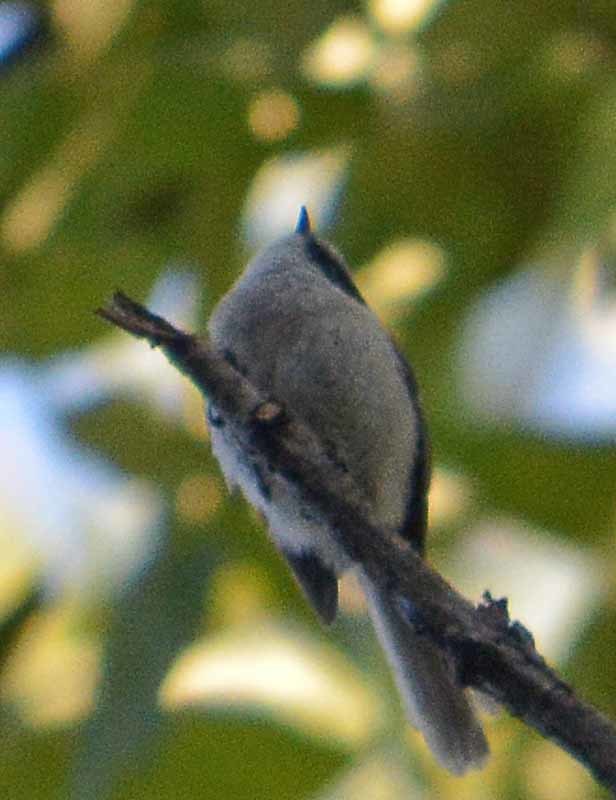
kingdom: Animalia
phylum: Chordata
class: Aves
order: Passeriformes
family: Aegithalidae
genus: Psaltriparus
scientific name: Psaltriparus minimus
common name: American bushtit
